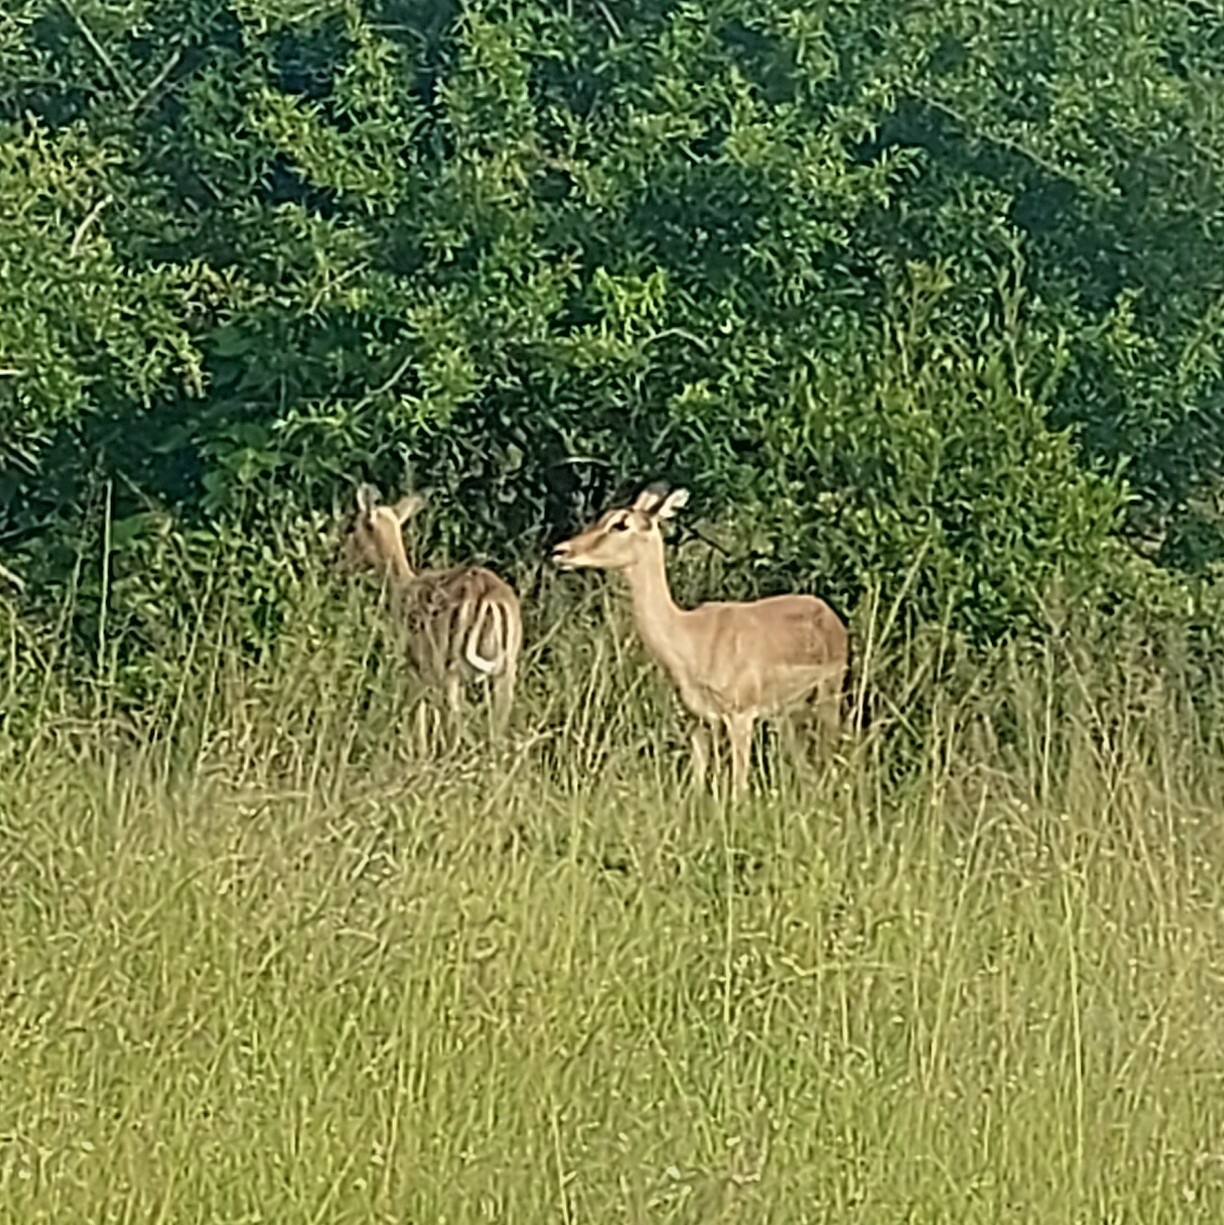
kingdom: Animalia
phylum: Chordata
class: Mammalia
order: Artiodactyla
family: Bovidae
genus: Aepyceros
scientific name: Aepyceros melampus
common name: Impala
